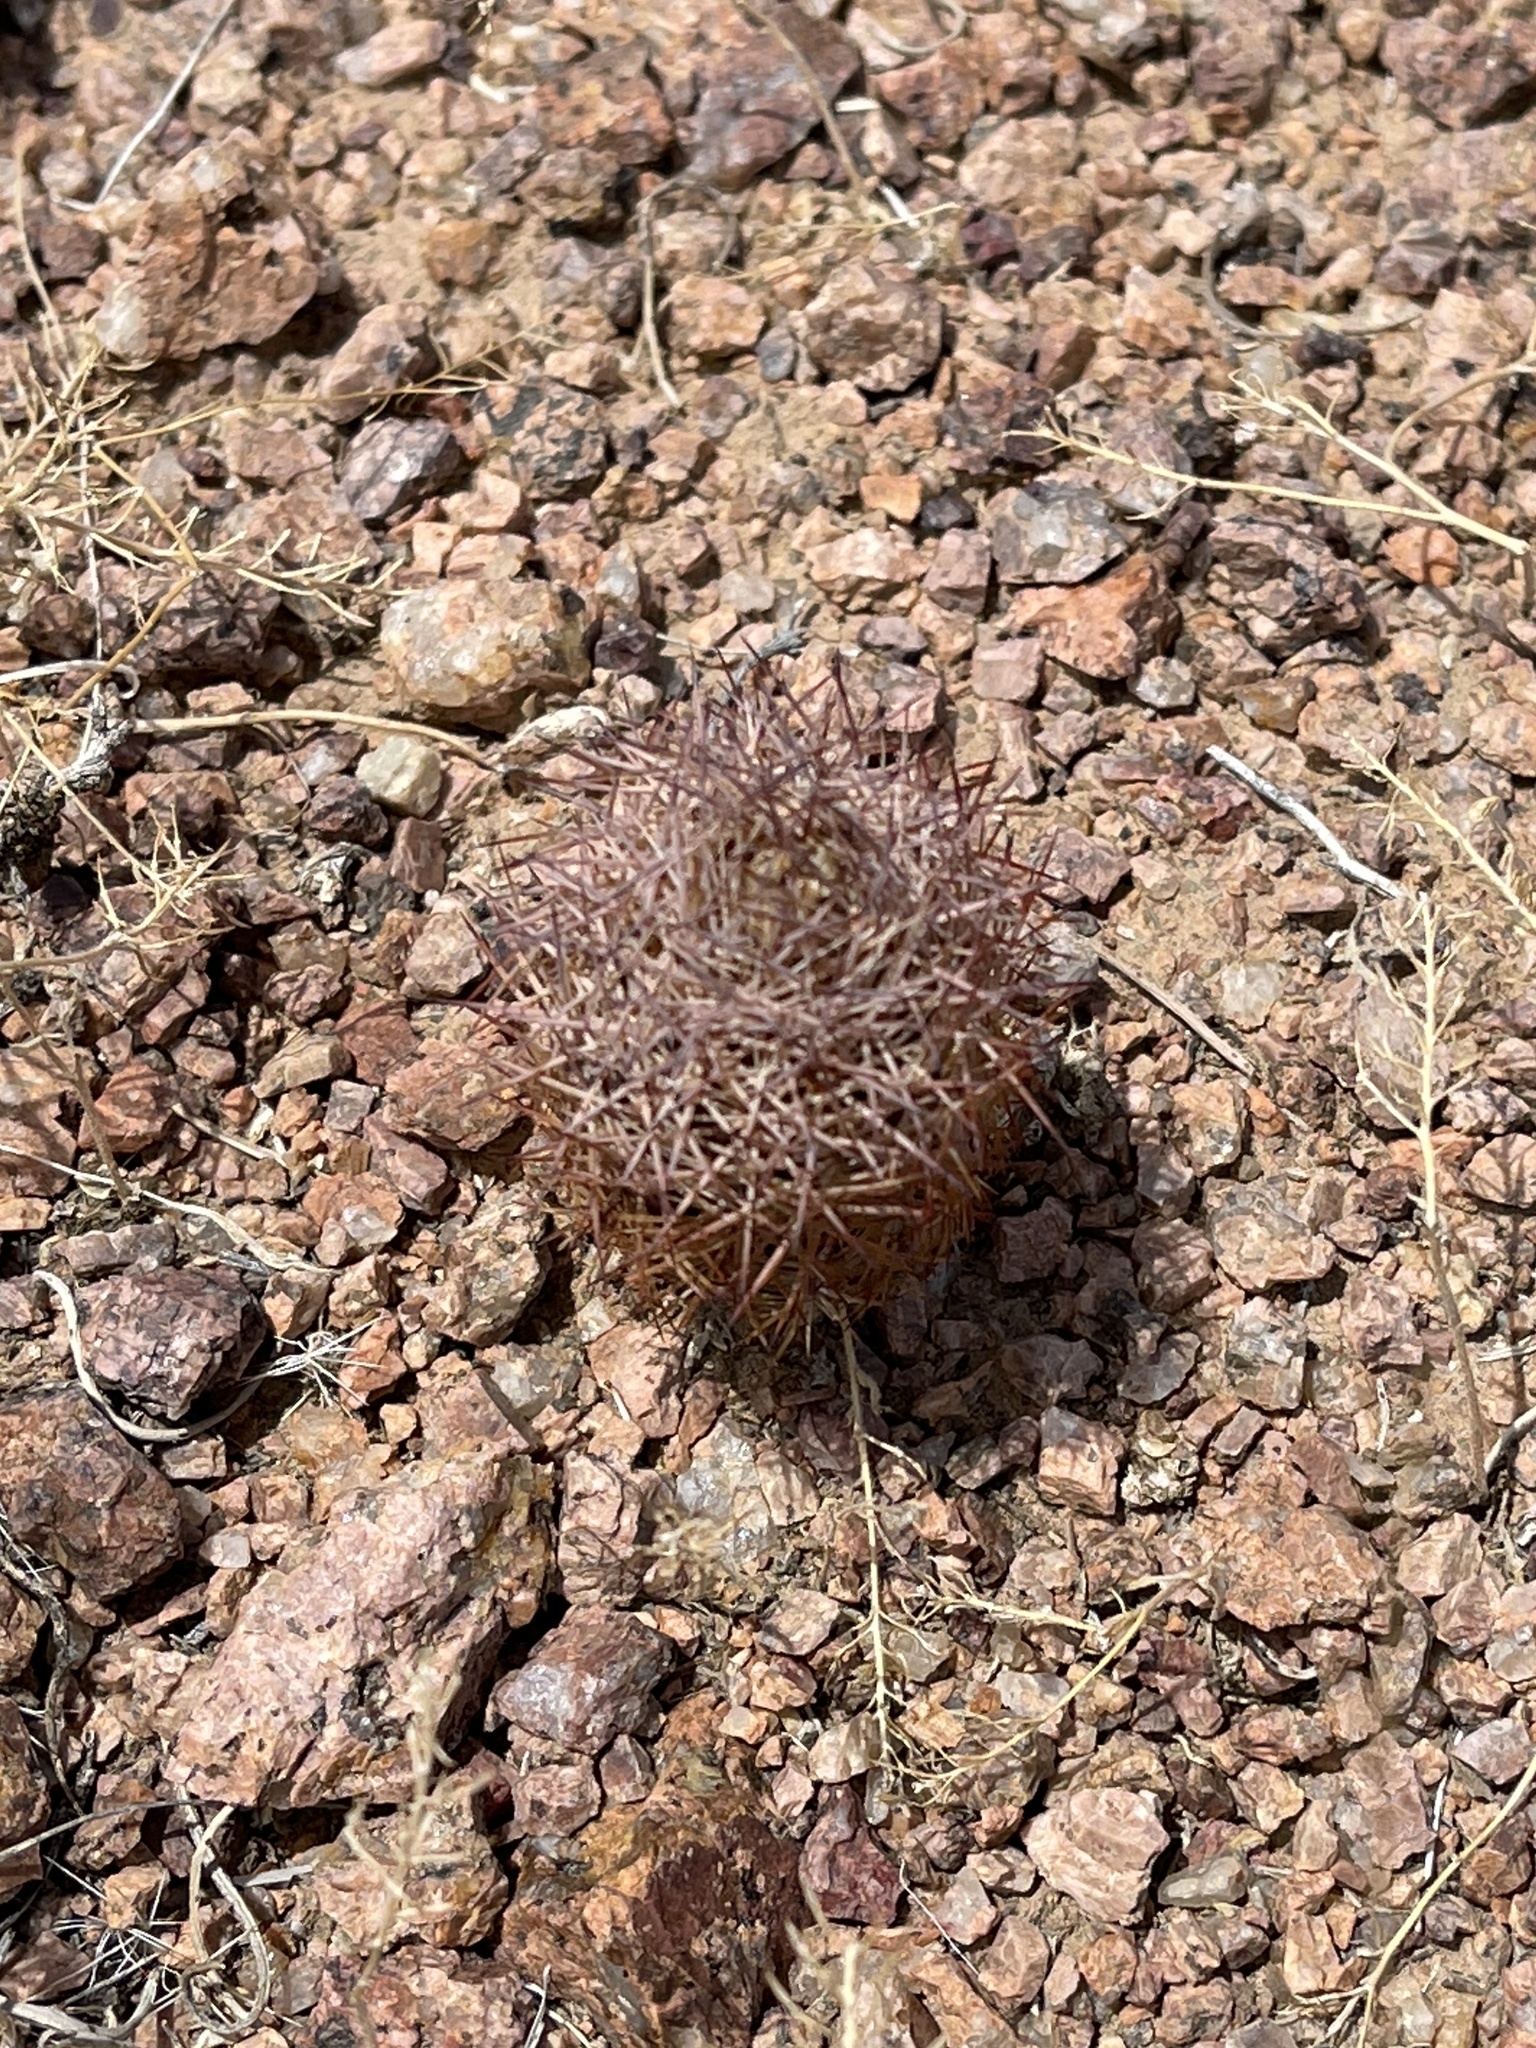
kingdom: Plantae
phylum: Tracheophyta
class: Magnoliopsida
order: Caryophyllales
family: Cactaceae
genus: Sclerocactus
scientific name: Sclerocactus intertextus
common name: White fish-hook cactus
